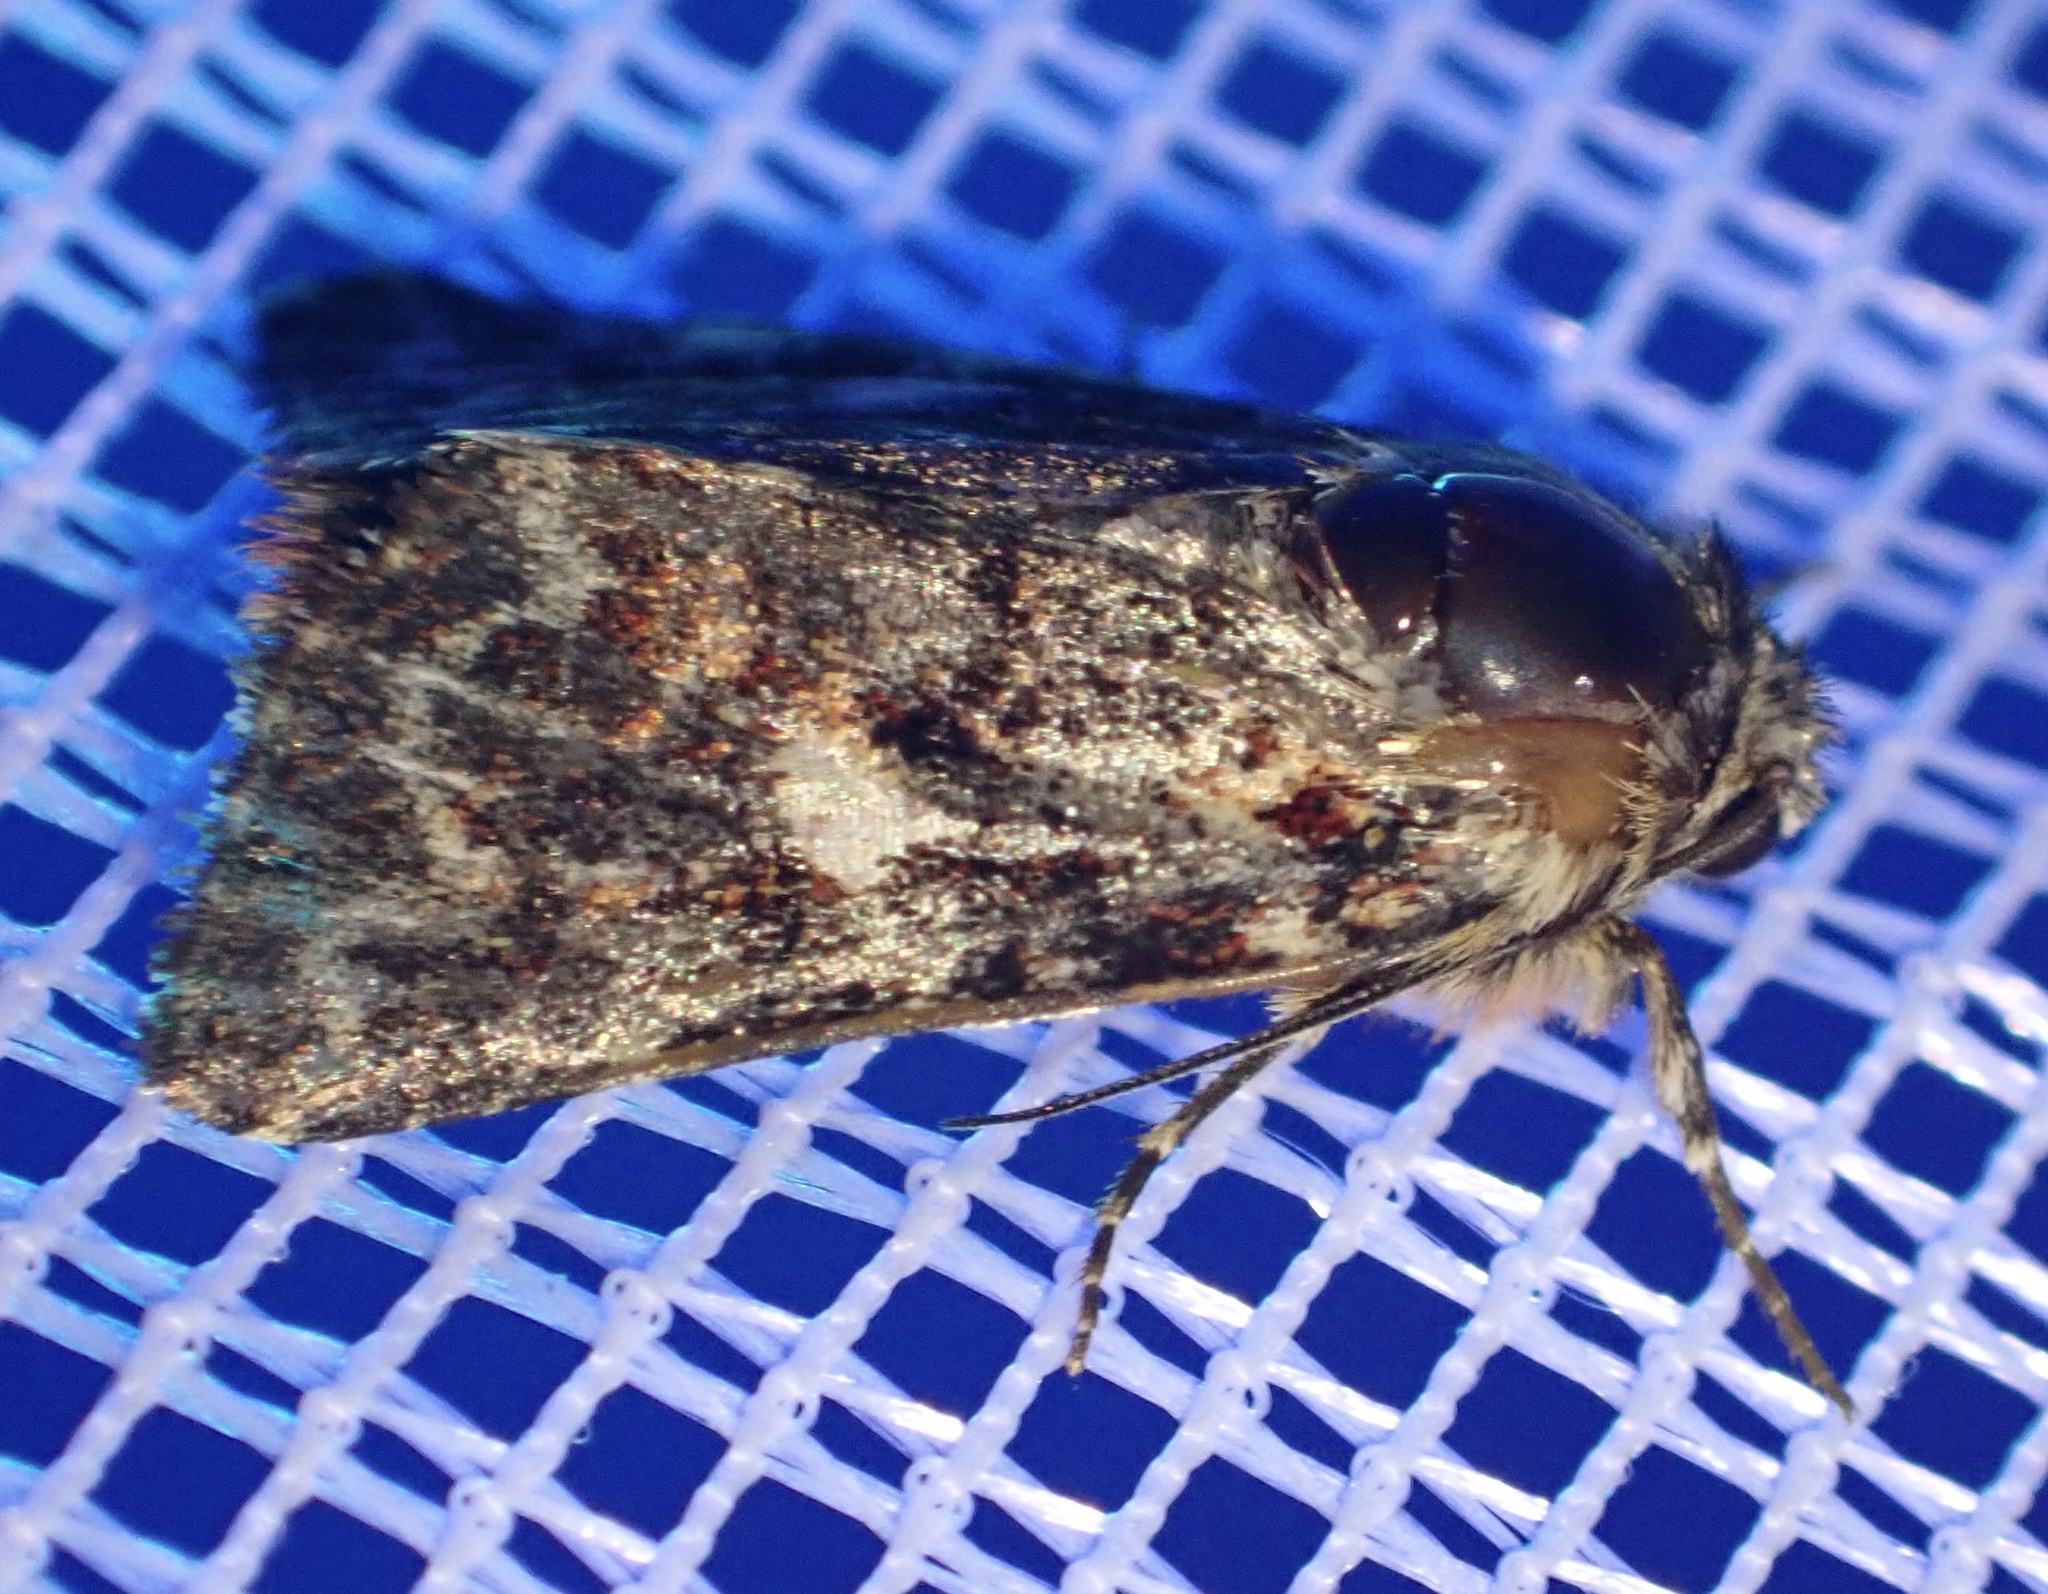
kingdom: Animalia
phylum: Arthropoda
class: Insecta
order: Lepidoptera
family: Noctuidae
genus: Anarta
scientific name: Anarta myrtilli
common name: Beautiful yellow underwing
